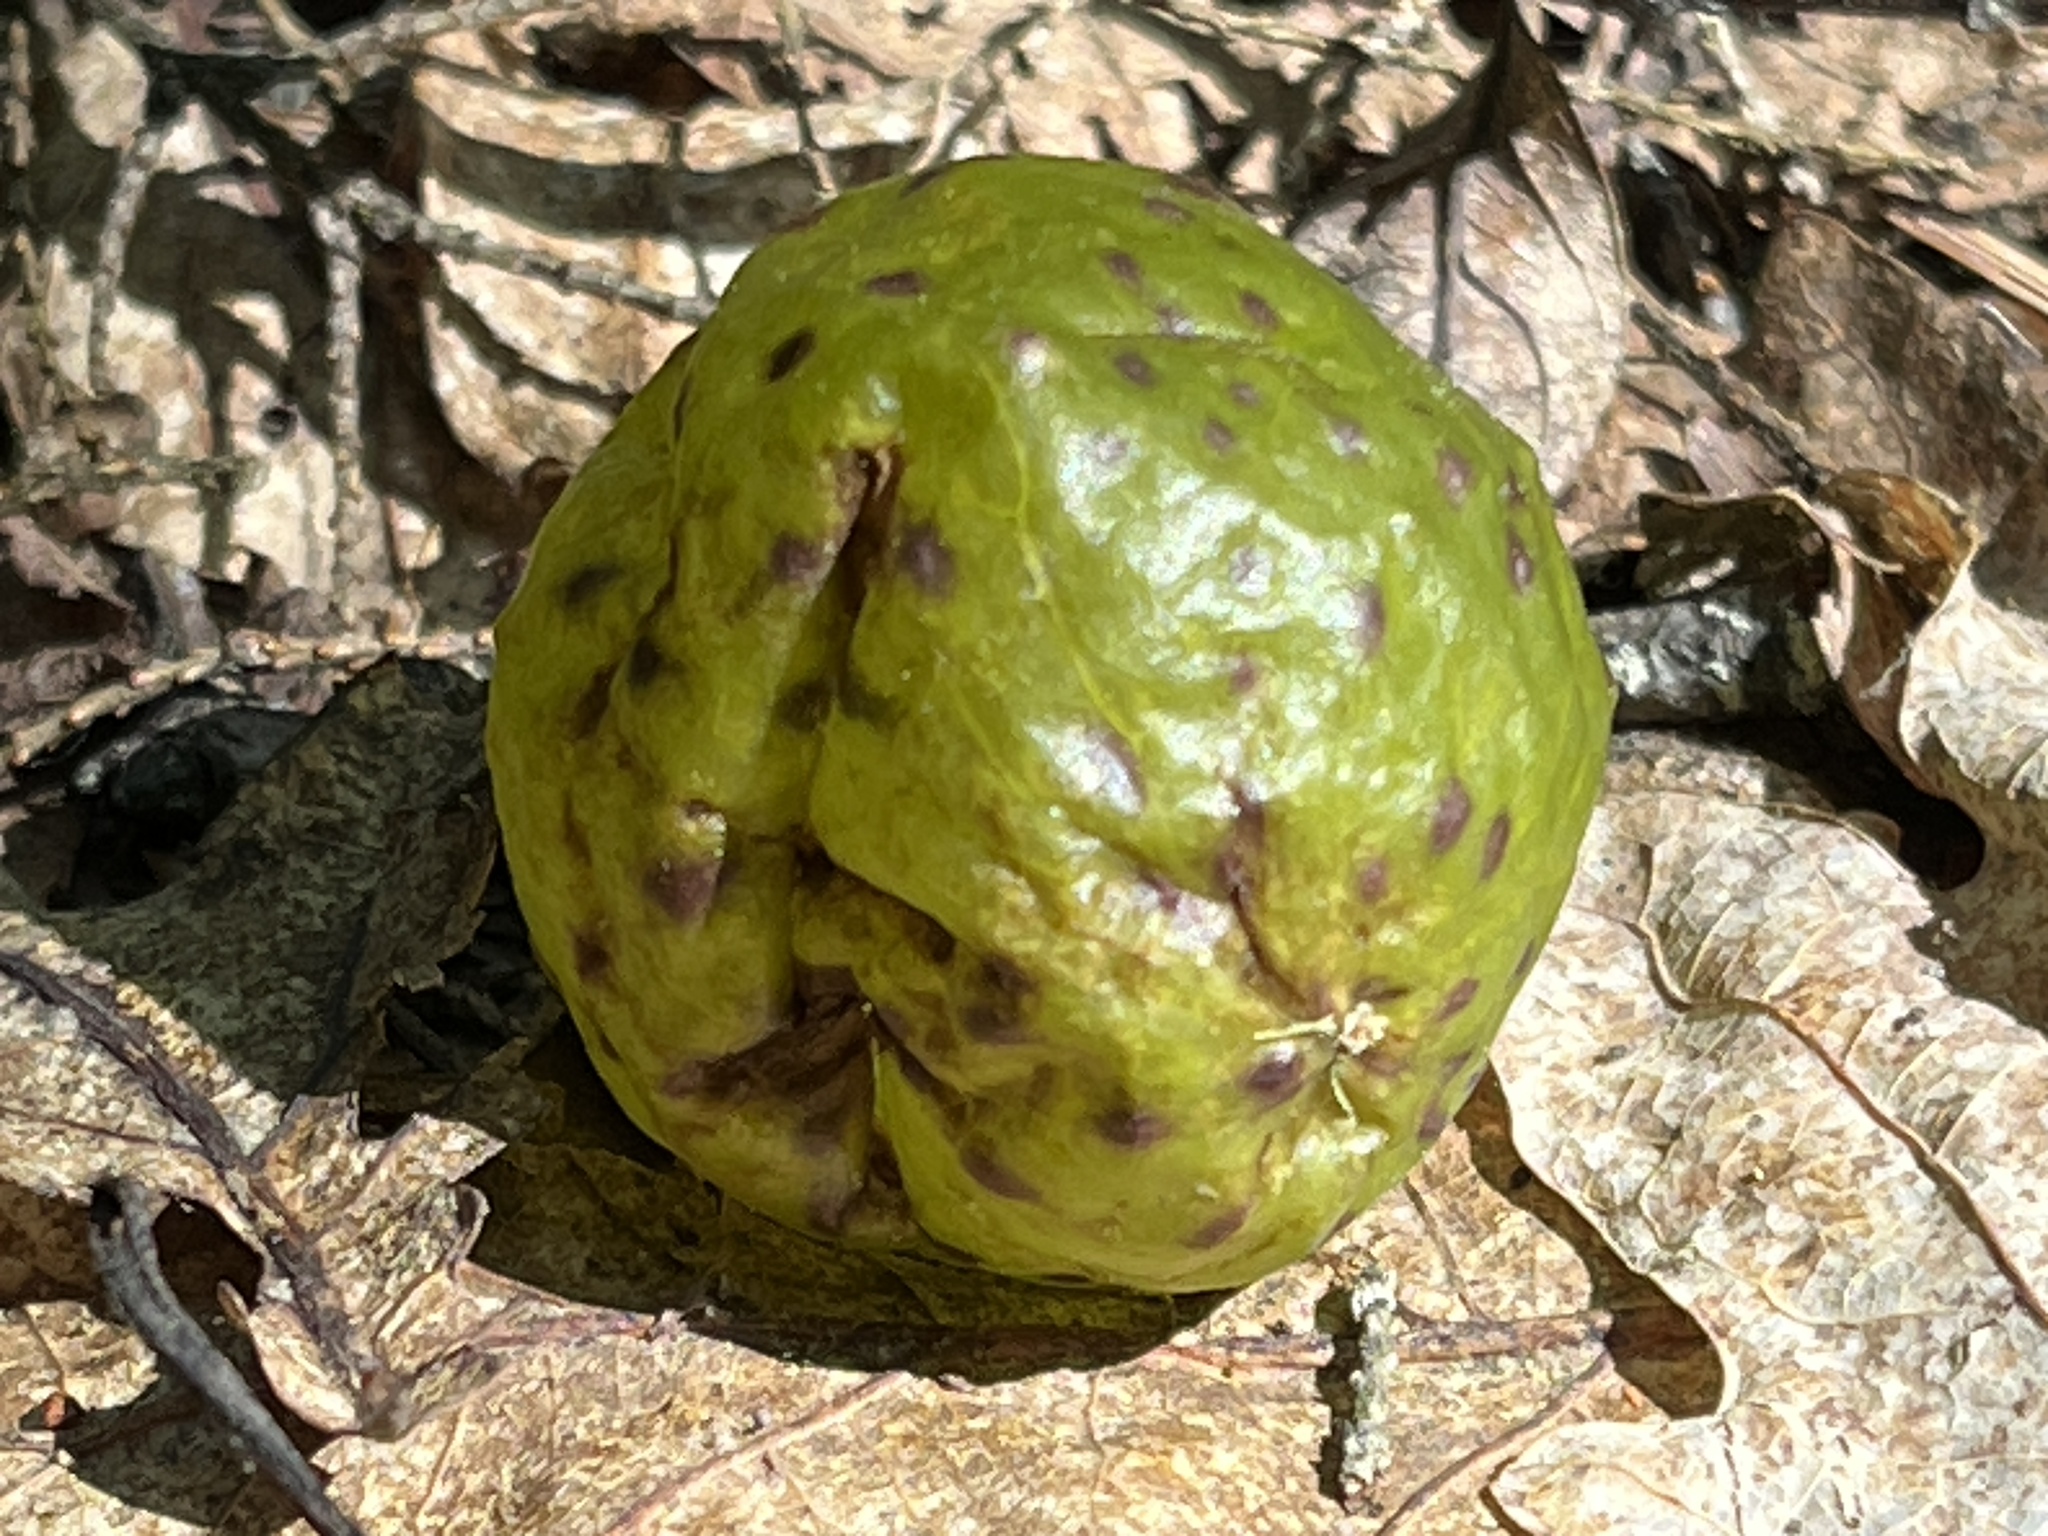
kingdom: Animalia
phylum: Arthropoda
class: Insecta
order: Hymenoptera
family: Cynipidae
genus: Amphibolips
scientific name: Amphibolips
